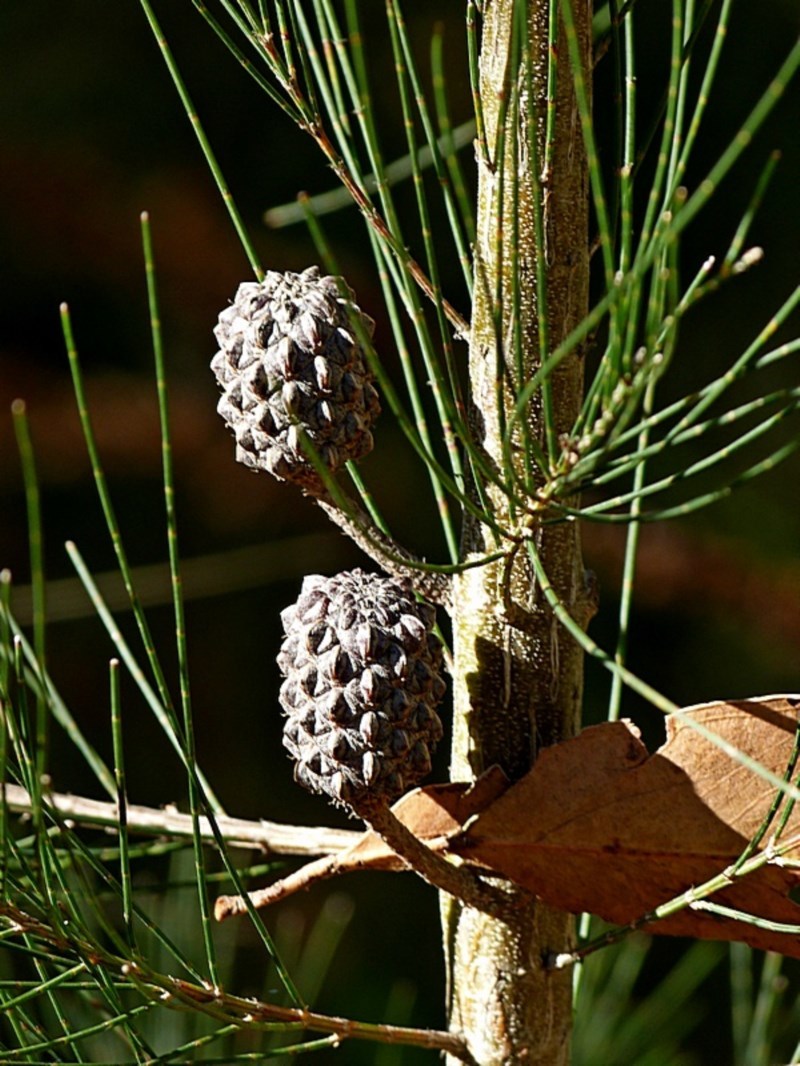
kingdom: Plantae
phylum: Tracheophyta
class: Magnoliopsida
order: Fagales
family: Casuarinaceae
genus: Allocasuarina
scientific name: Allocasuarina littoralis
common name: Black she-oak
